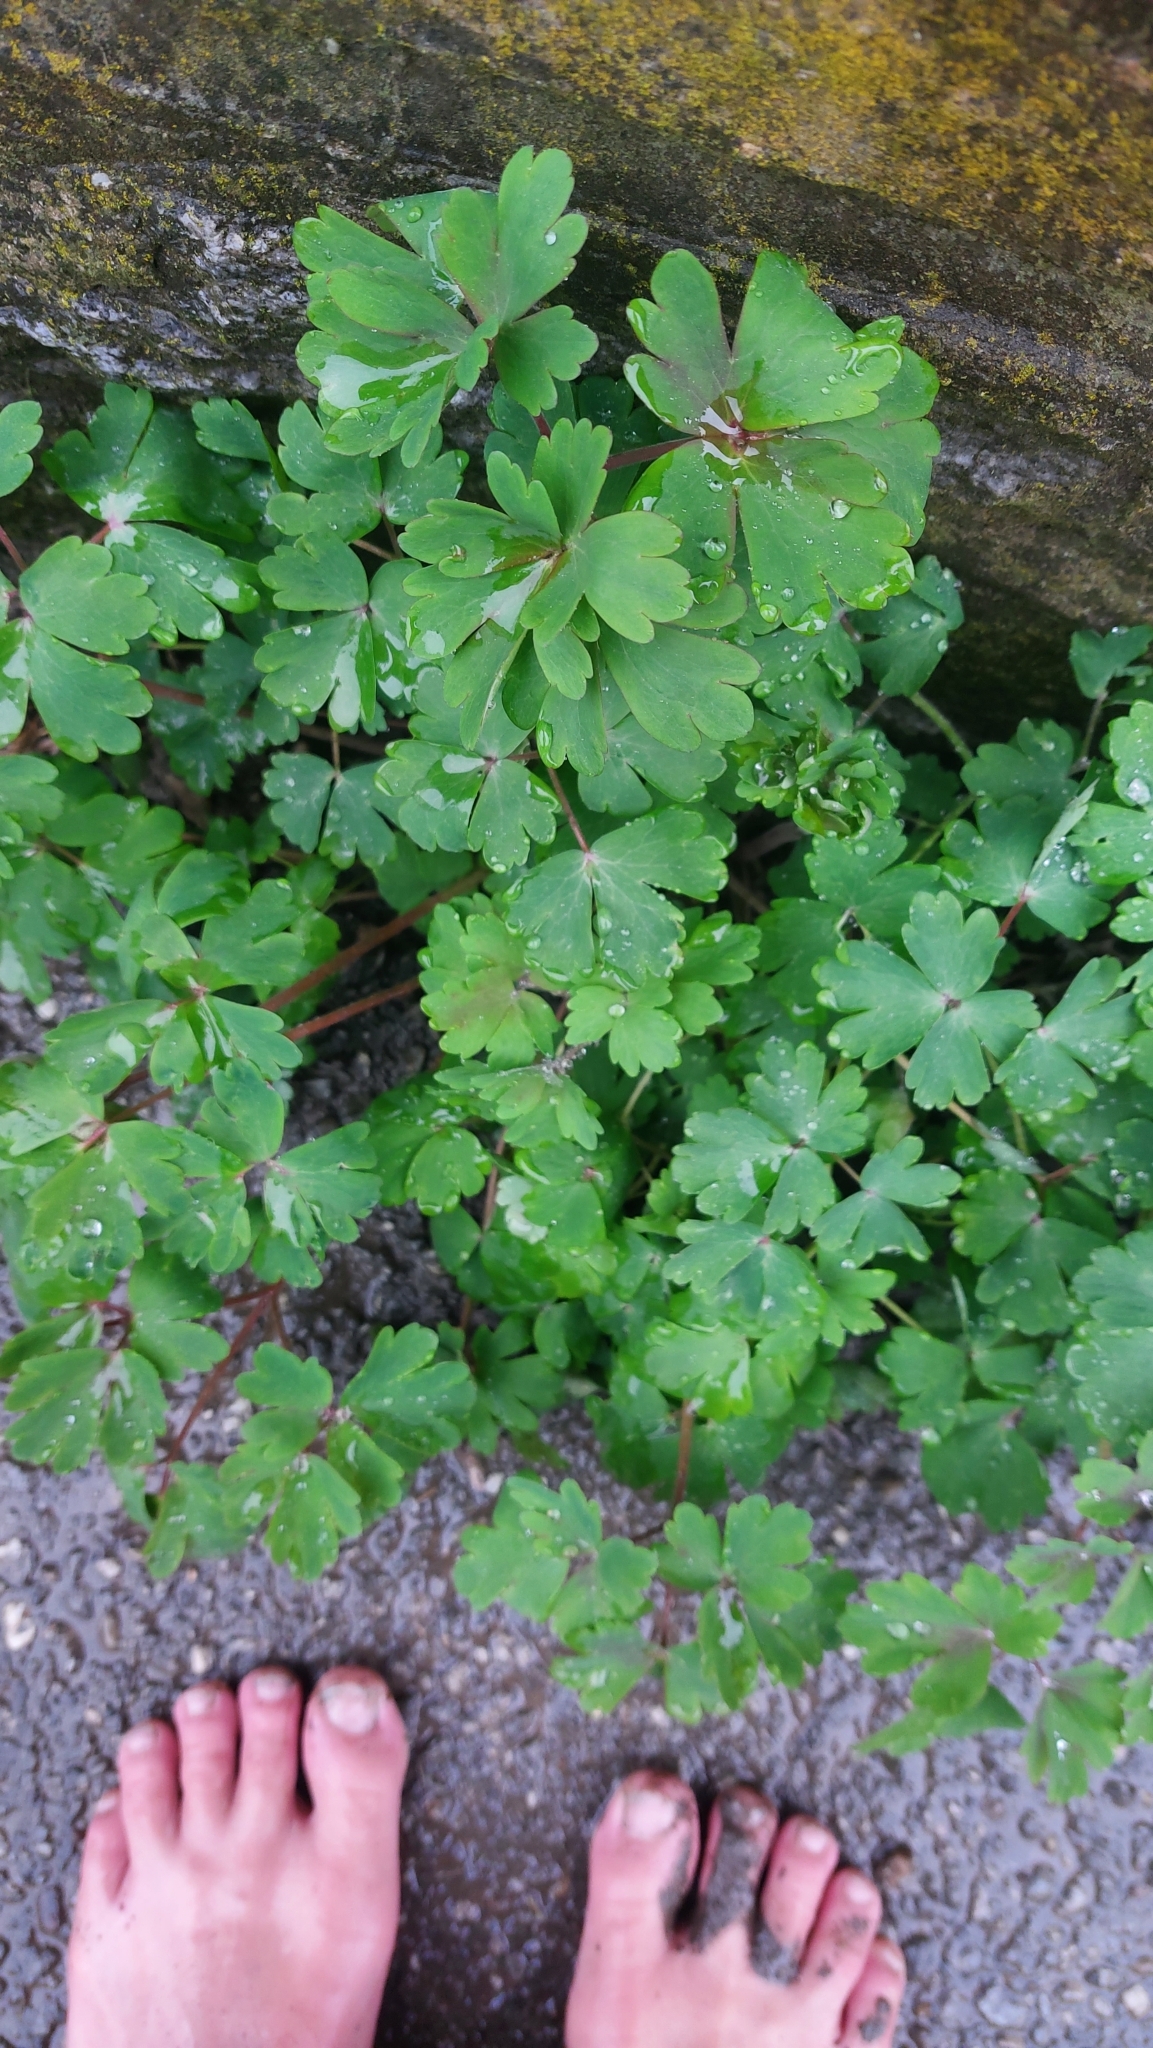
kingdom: Plantae
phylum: Tracheophyta
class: Magnoliopsida
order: Ranunculales
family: Papaveraceae
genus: Chelidonium
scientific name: Chelidonium majus
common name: Greater celandine
